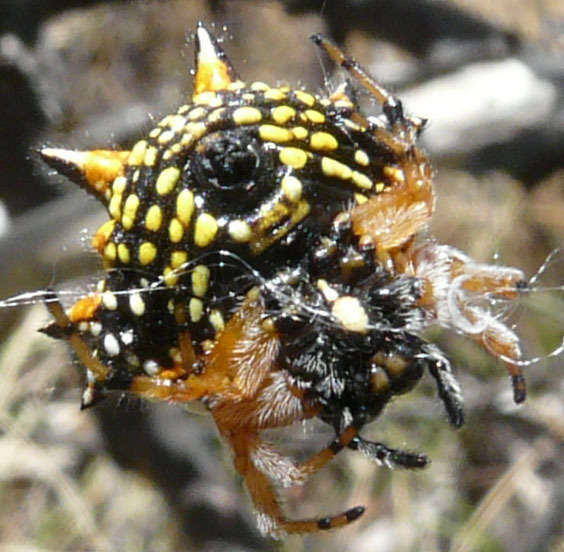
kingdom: Animalia
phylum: Arthropoda
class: Arachnida
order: Araneae
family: Araneidae
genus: Austracantha
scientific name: Austracantha minax
